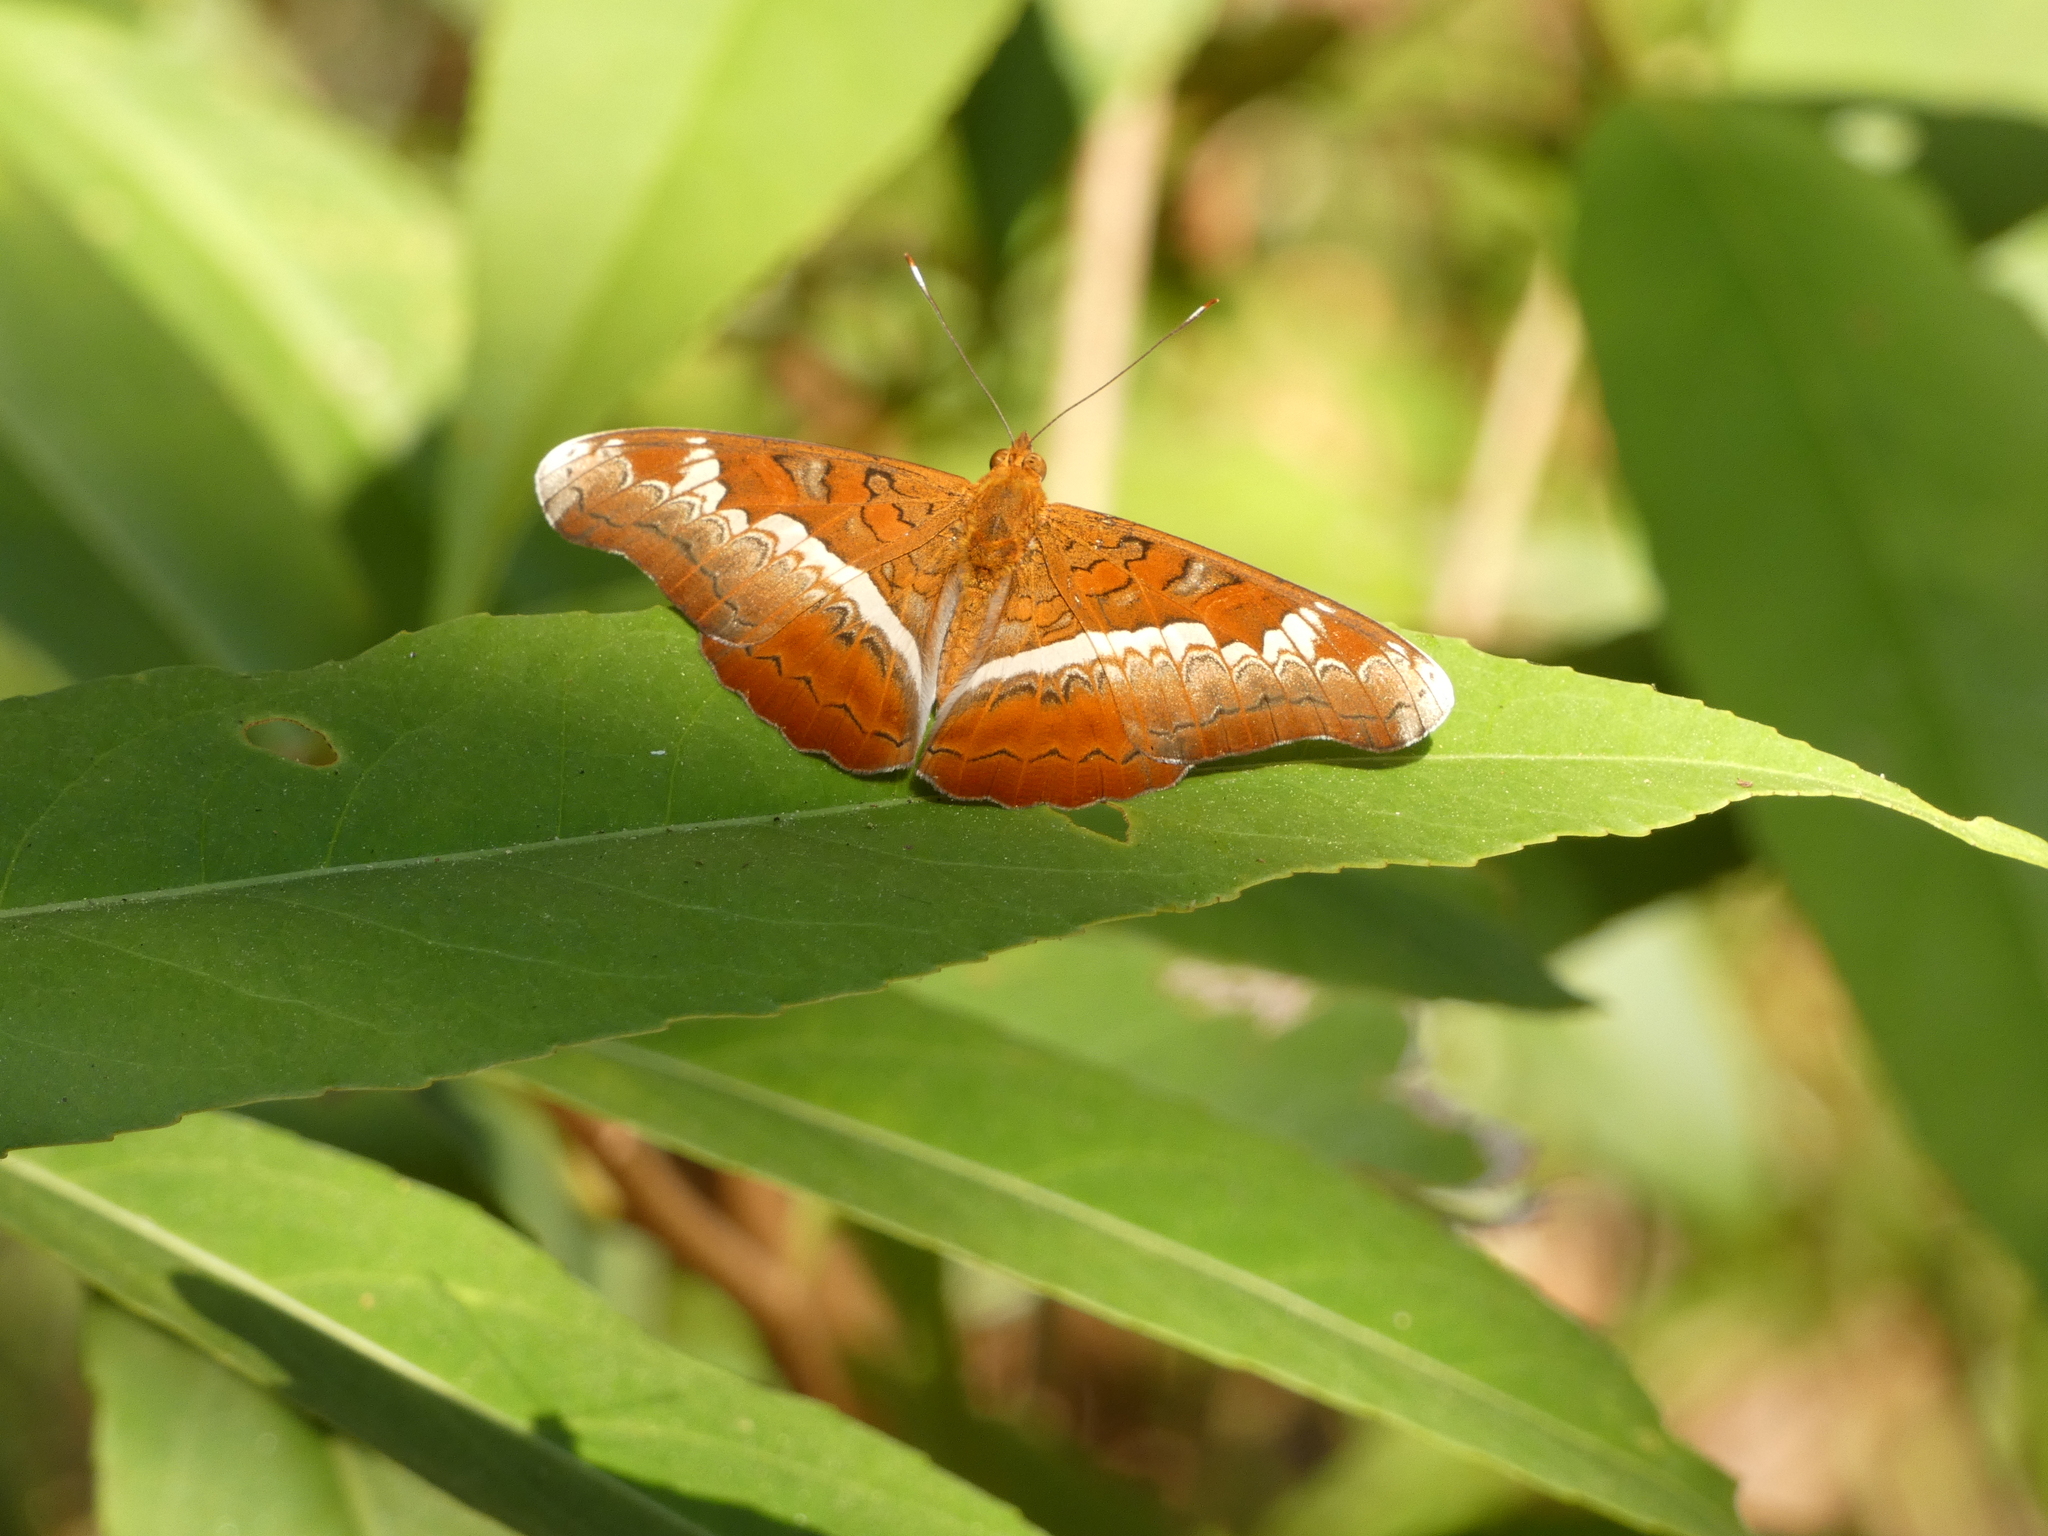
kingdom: Animalia
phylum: Arthropoda
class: Insecta
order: Lepidoptera
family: Nymphalidae
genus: Lebadea
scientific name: Lebadea martha
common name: Knight
